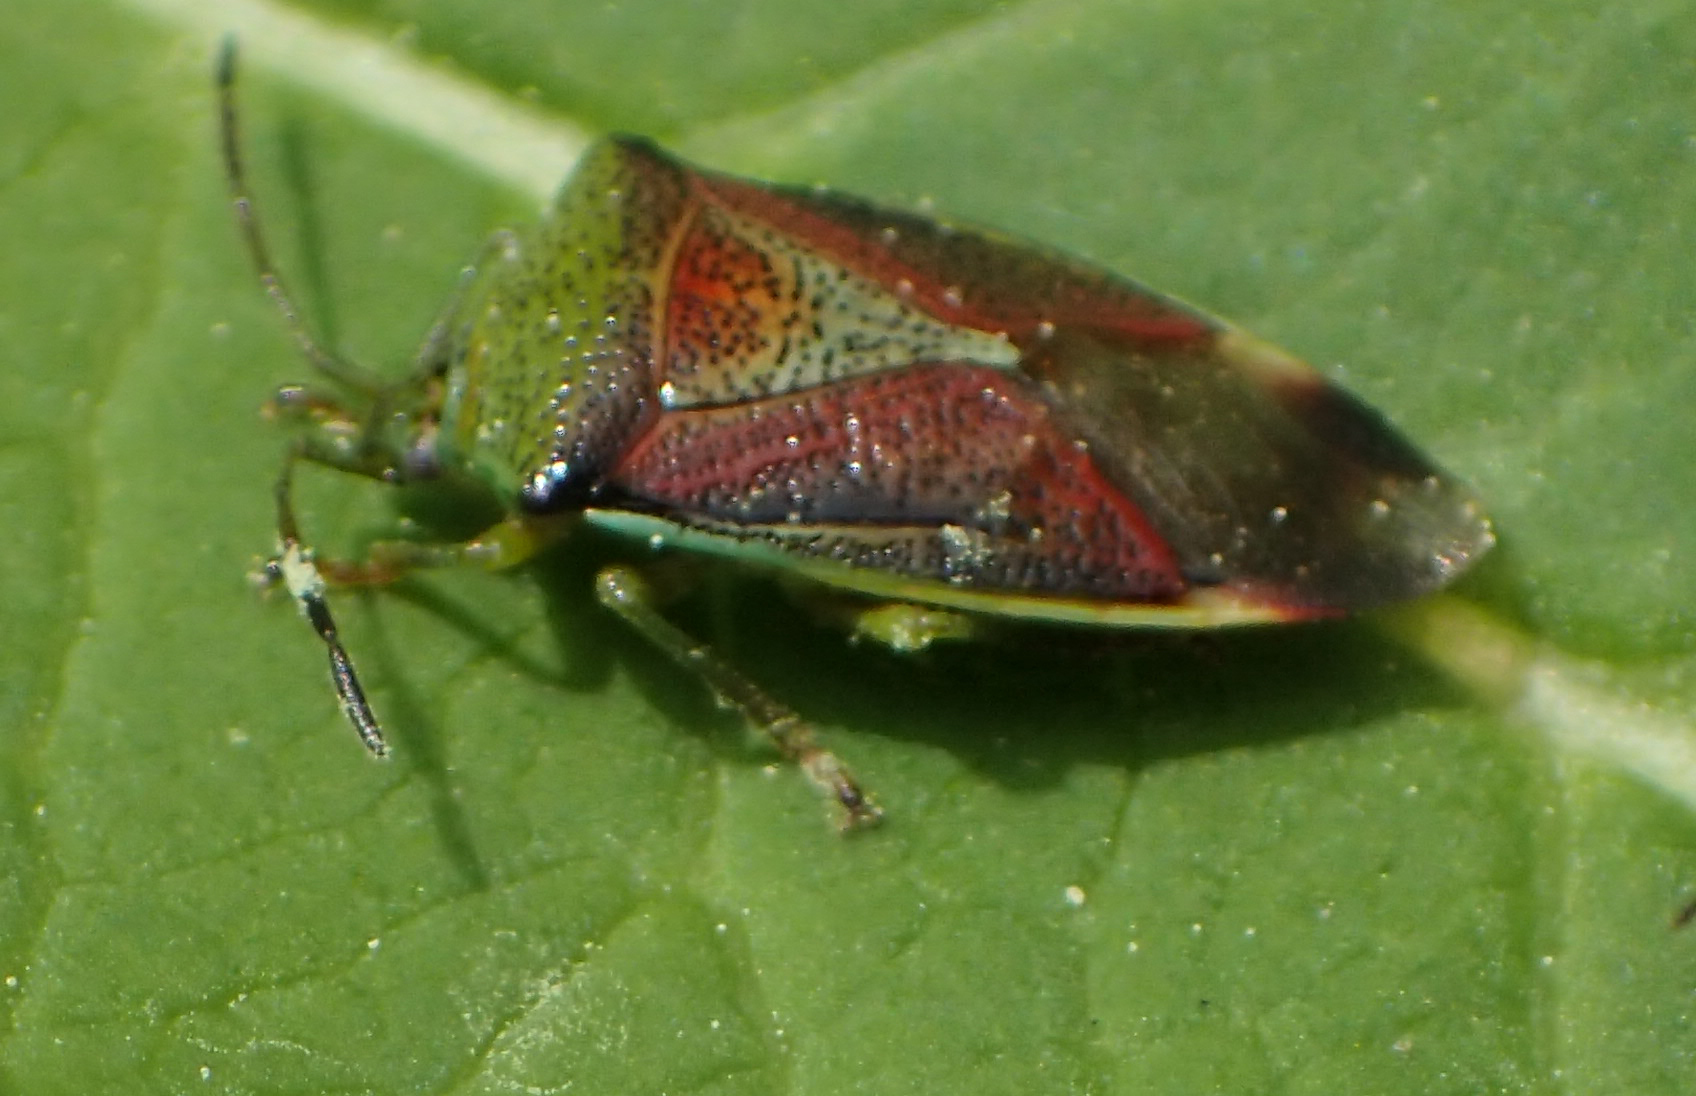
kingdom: Animalia
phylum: Arthropoda
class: Insecta
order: Hemiptera
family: Acanthosomatidae
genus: Elasmostethus
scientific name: Elasmostethus interstinctus
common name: Birch shieldbug
